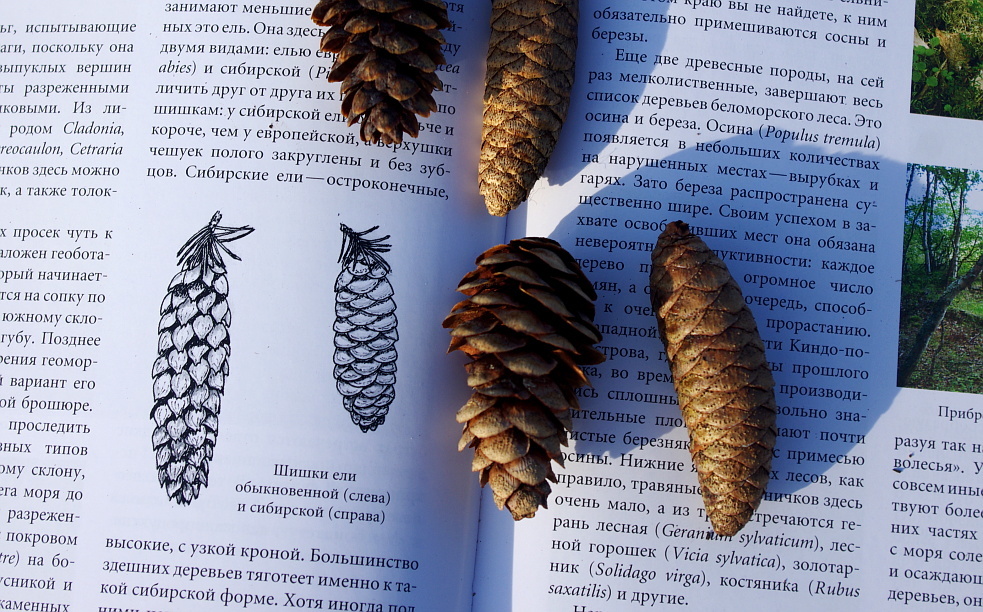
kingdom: Plantae
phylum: Tracheophyta
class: Pinopsida
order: Pinales
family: Pinaceae
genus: Picea
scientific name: Picea obovata
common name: Siberian spruce
